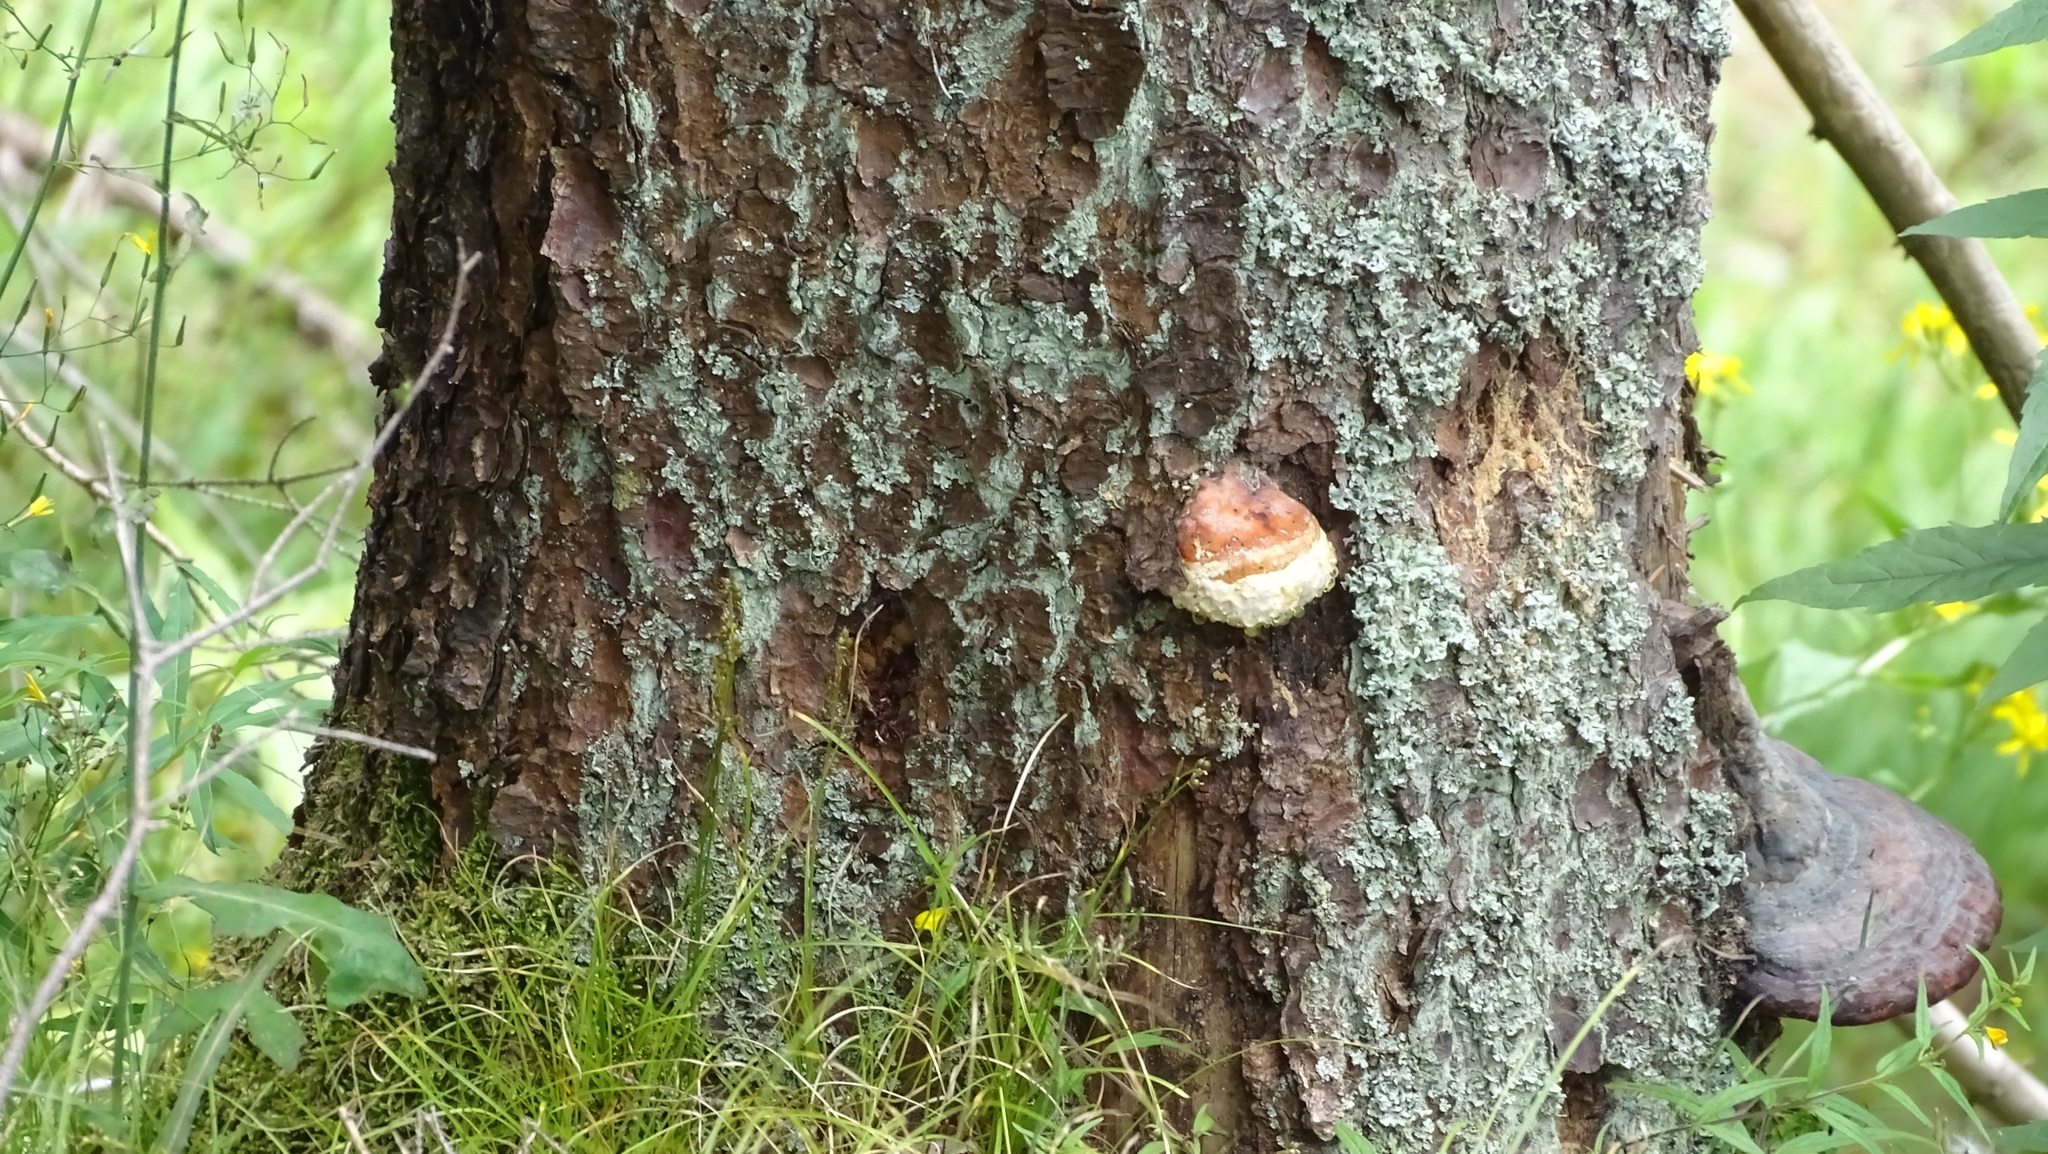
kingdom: Fungi
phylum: Basidiomycota
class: Agaricomycetes
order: Polyporales
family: Fomitopsidaceae
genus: Fomitopsis
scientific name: Fomitopsis pinicola
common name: Red-belted bracket
